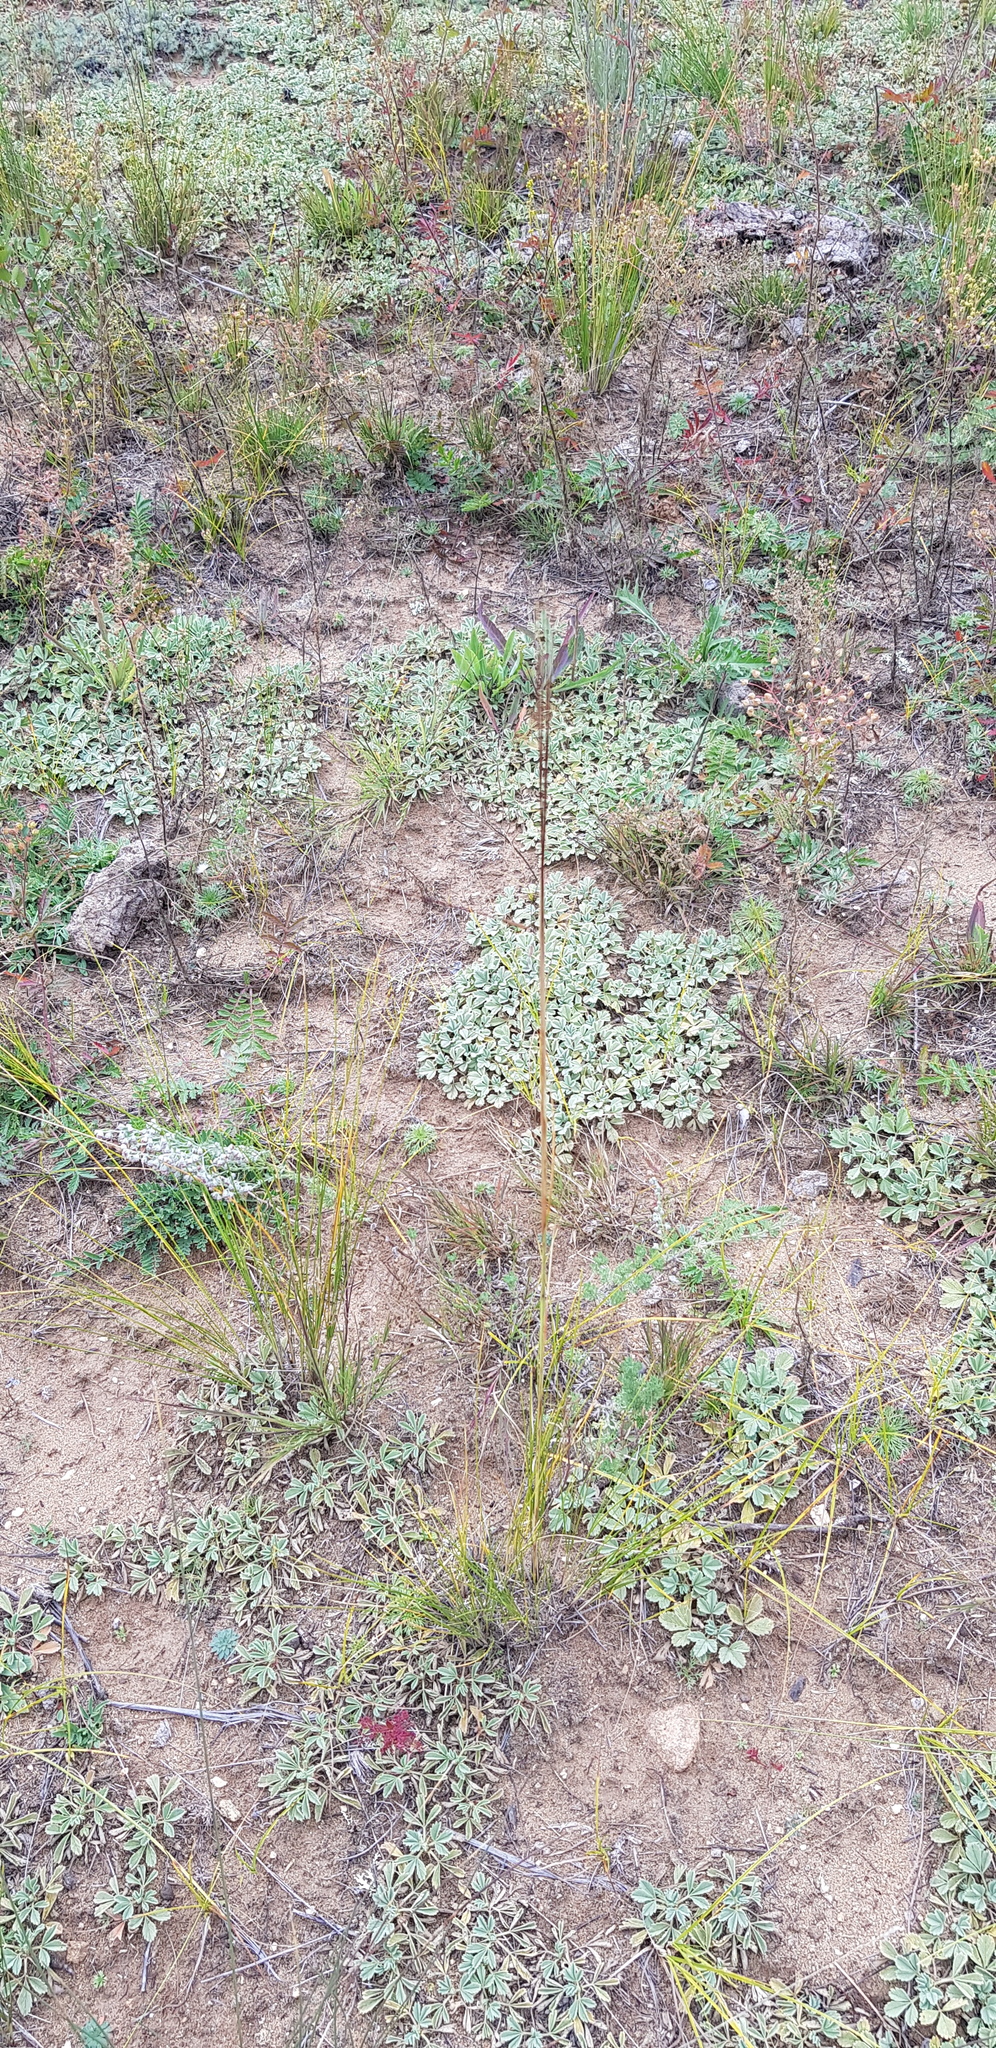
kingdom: Plantae
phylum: Tracheophyta
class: Magnoliopsida
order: Rosales
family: Rosaceae
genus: Potentilla
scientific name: Potentilla acaulis
